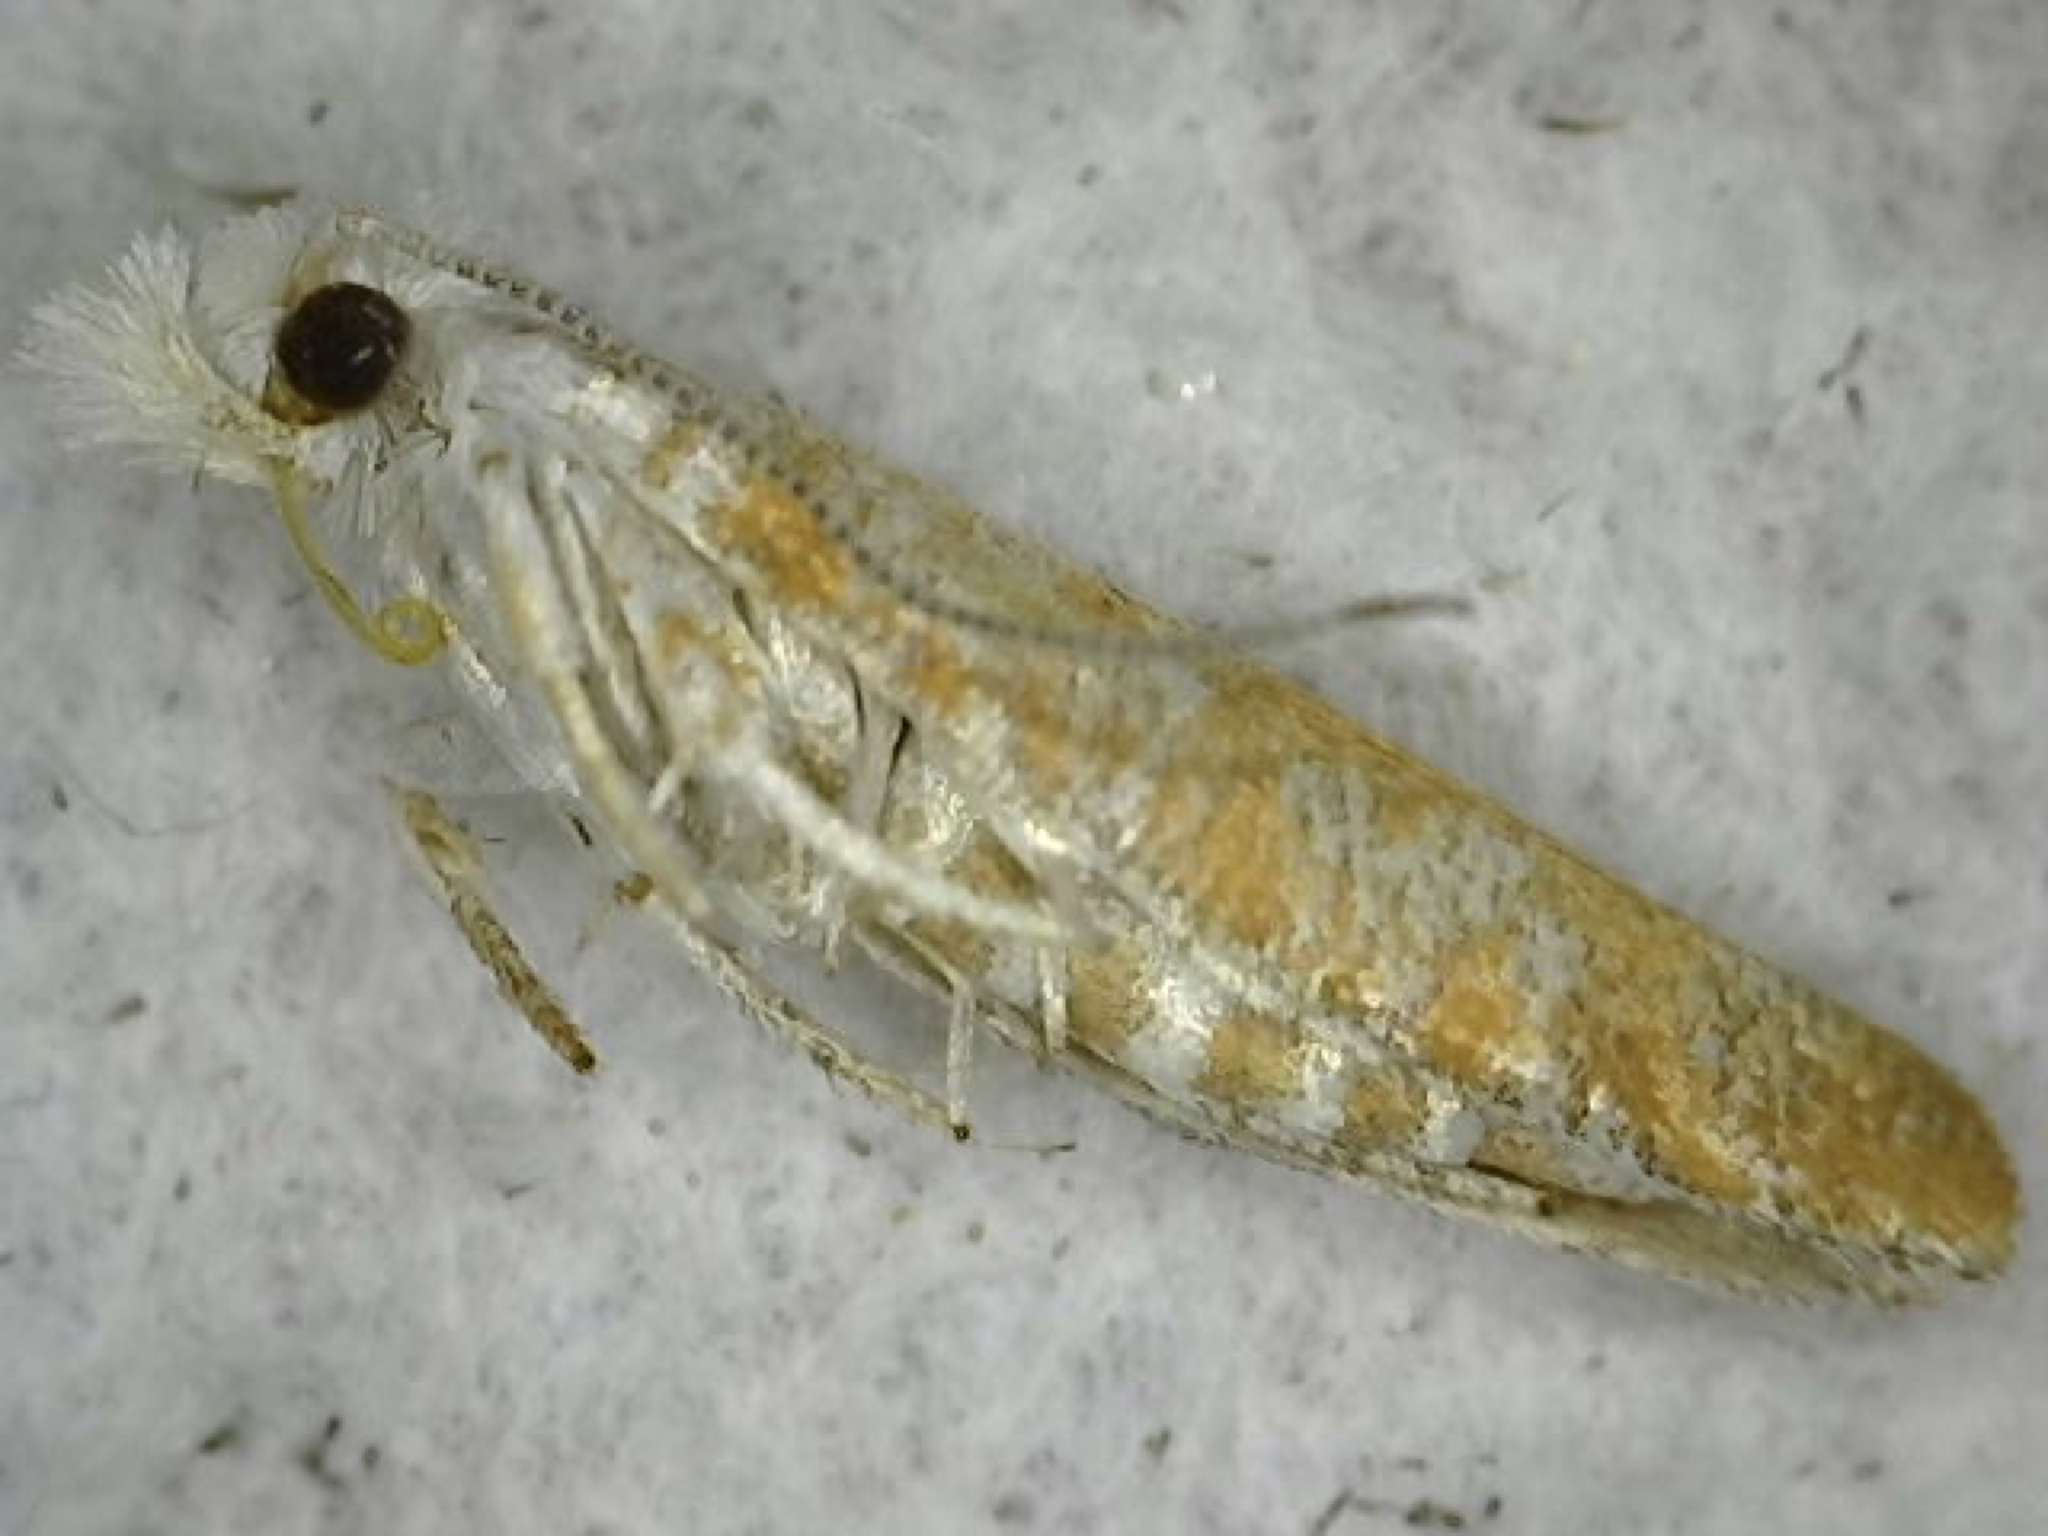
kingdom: Animalia
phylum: Arthropoda
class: Insecta
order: Lepidoptera
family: Yponomeutidae
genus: Zelleria
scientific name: Zelleria retiniella
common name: Brindled zelleria
